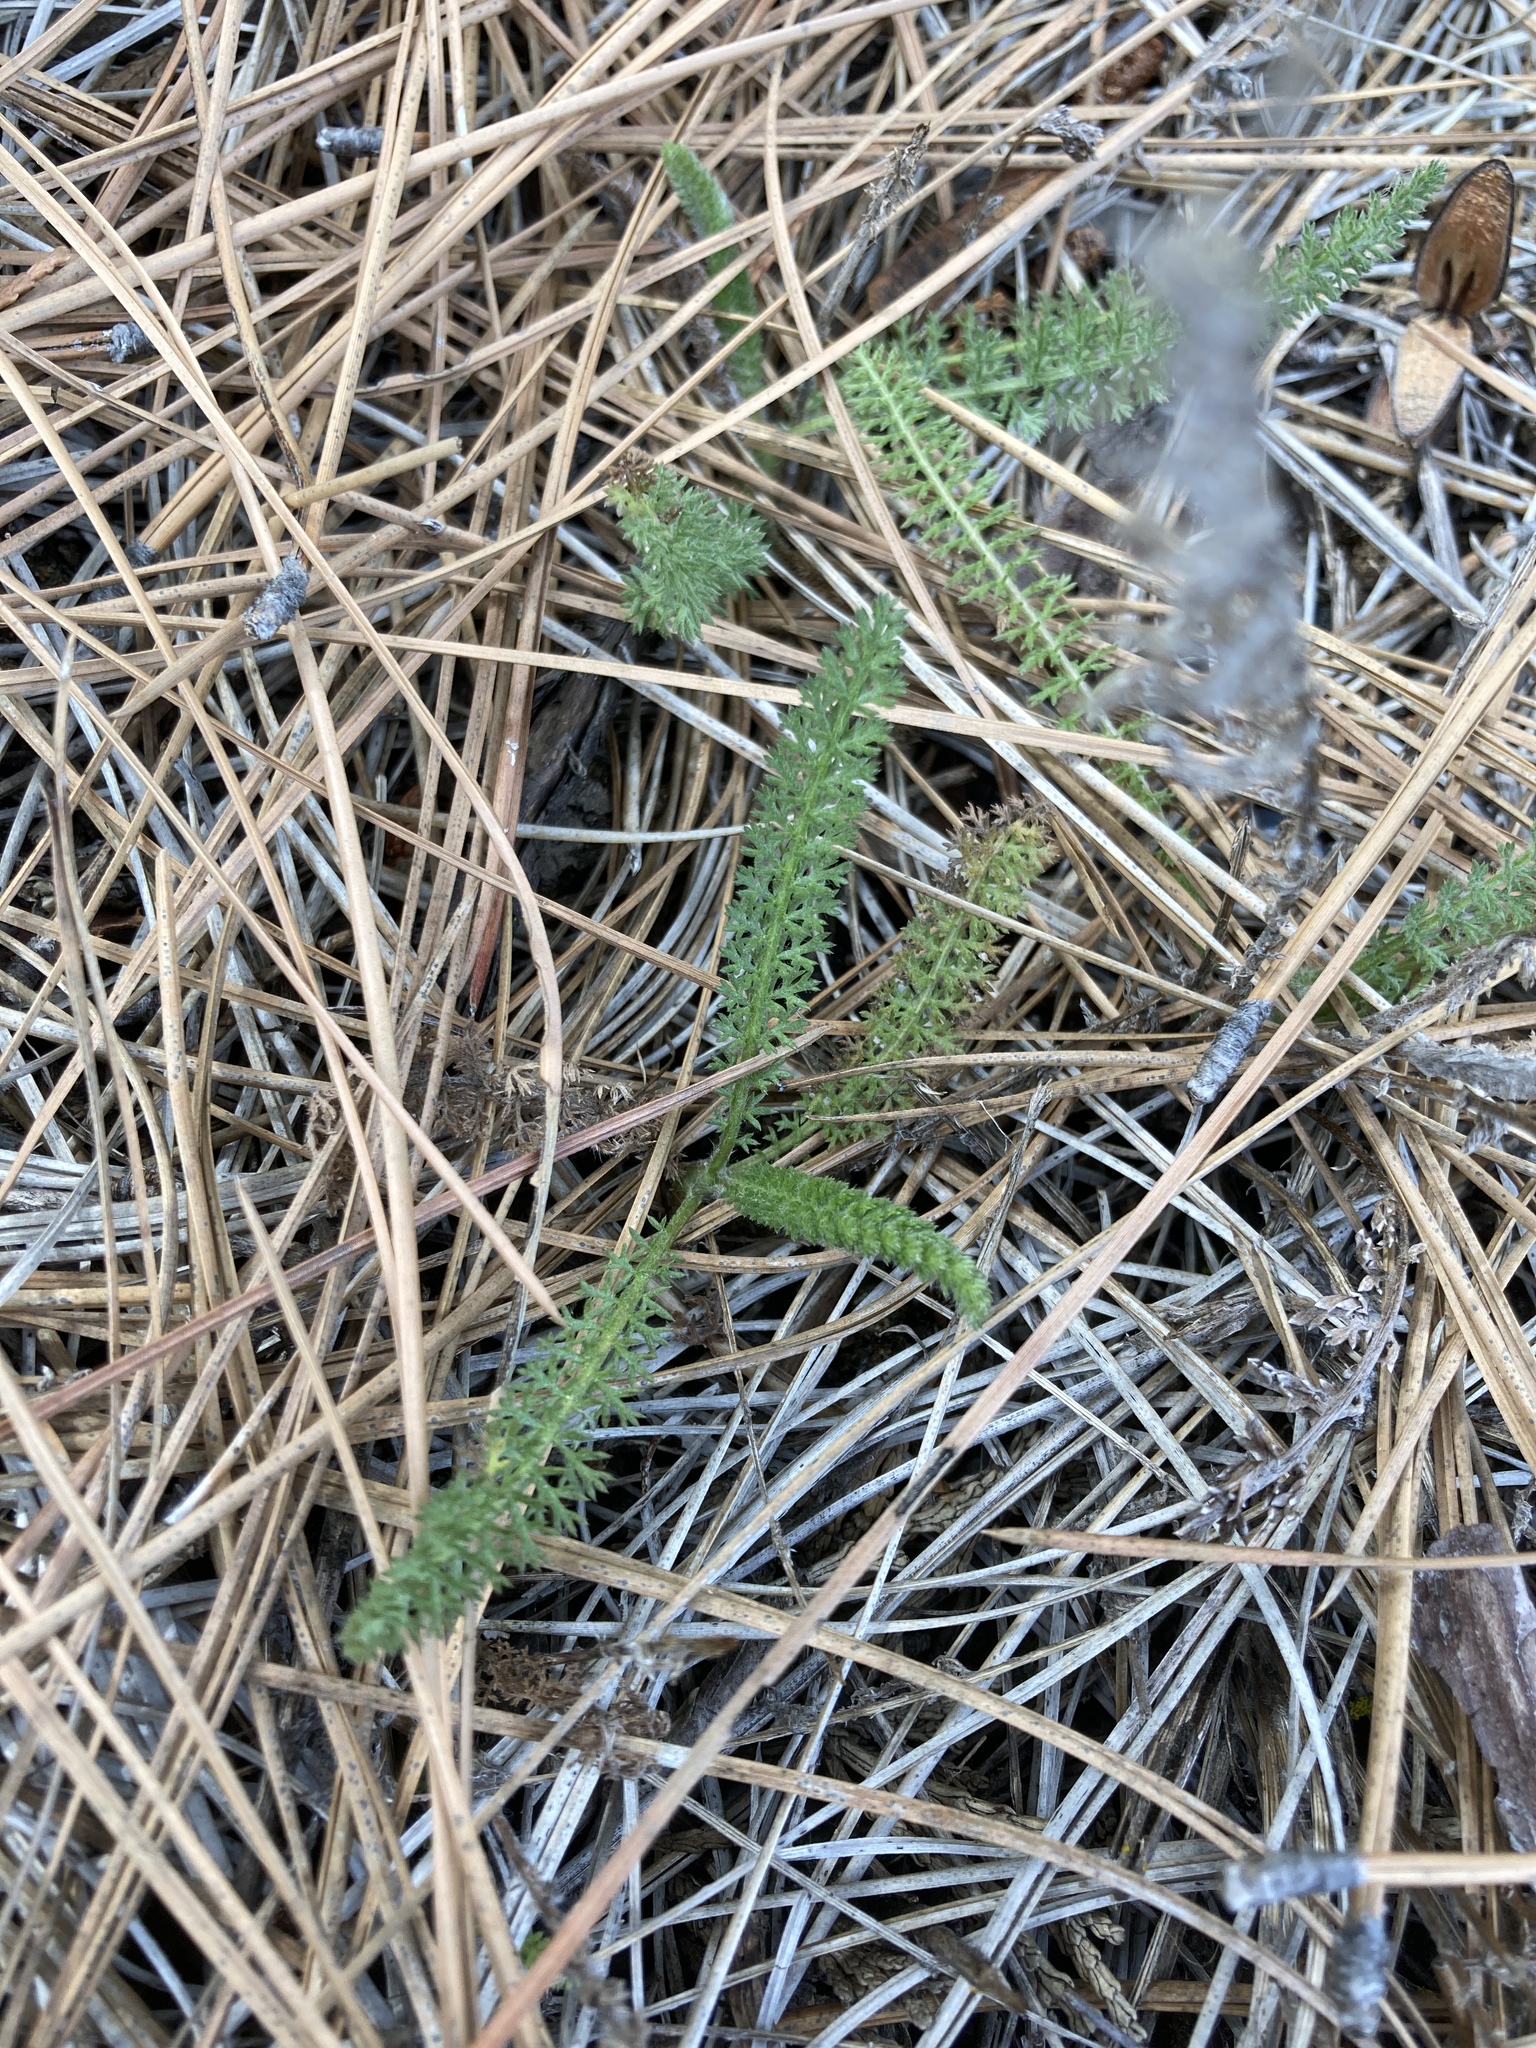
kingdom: Plantae
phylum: Tracheophyta
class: Magnoliopsida
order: Asterales
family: Asteraceae
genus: Achillea
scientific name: Achillea millefolium
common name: Yarrow
